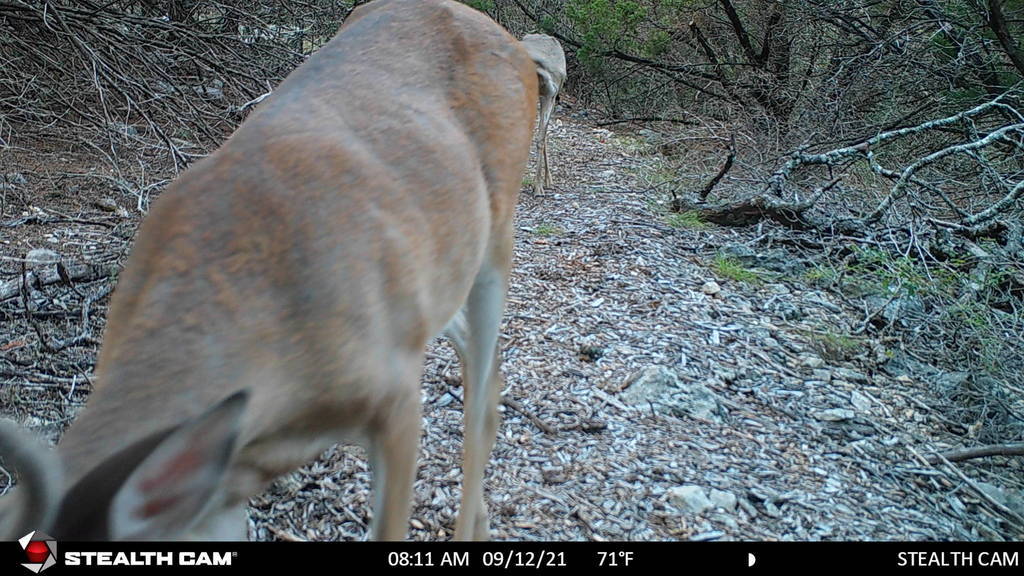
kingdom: Animalia
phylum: Chordata
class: Mammalia
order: Artiodactyla
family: Cervidae
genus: Odocoileus
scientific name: Odocoileus virginianus
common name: White-tailed deer
